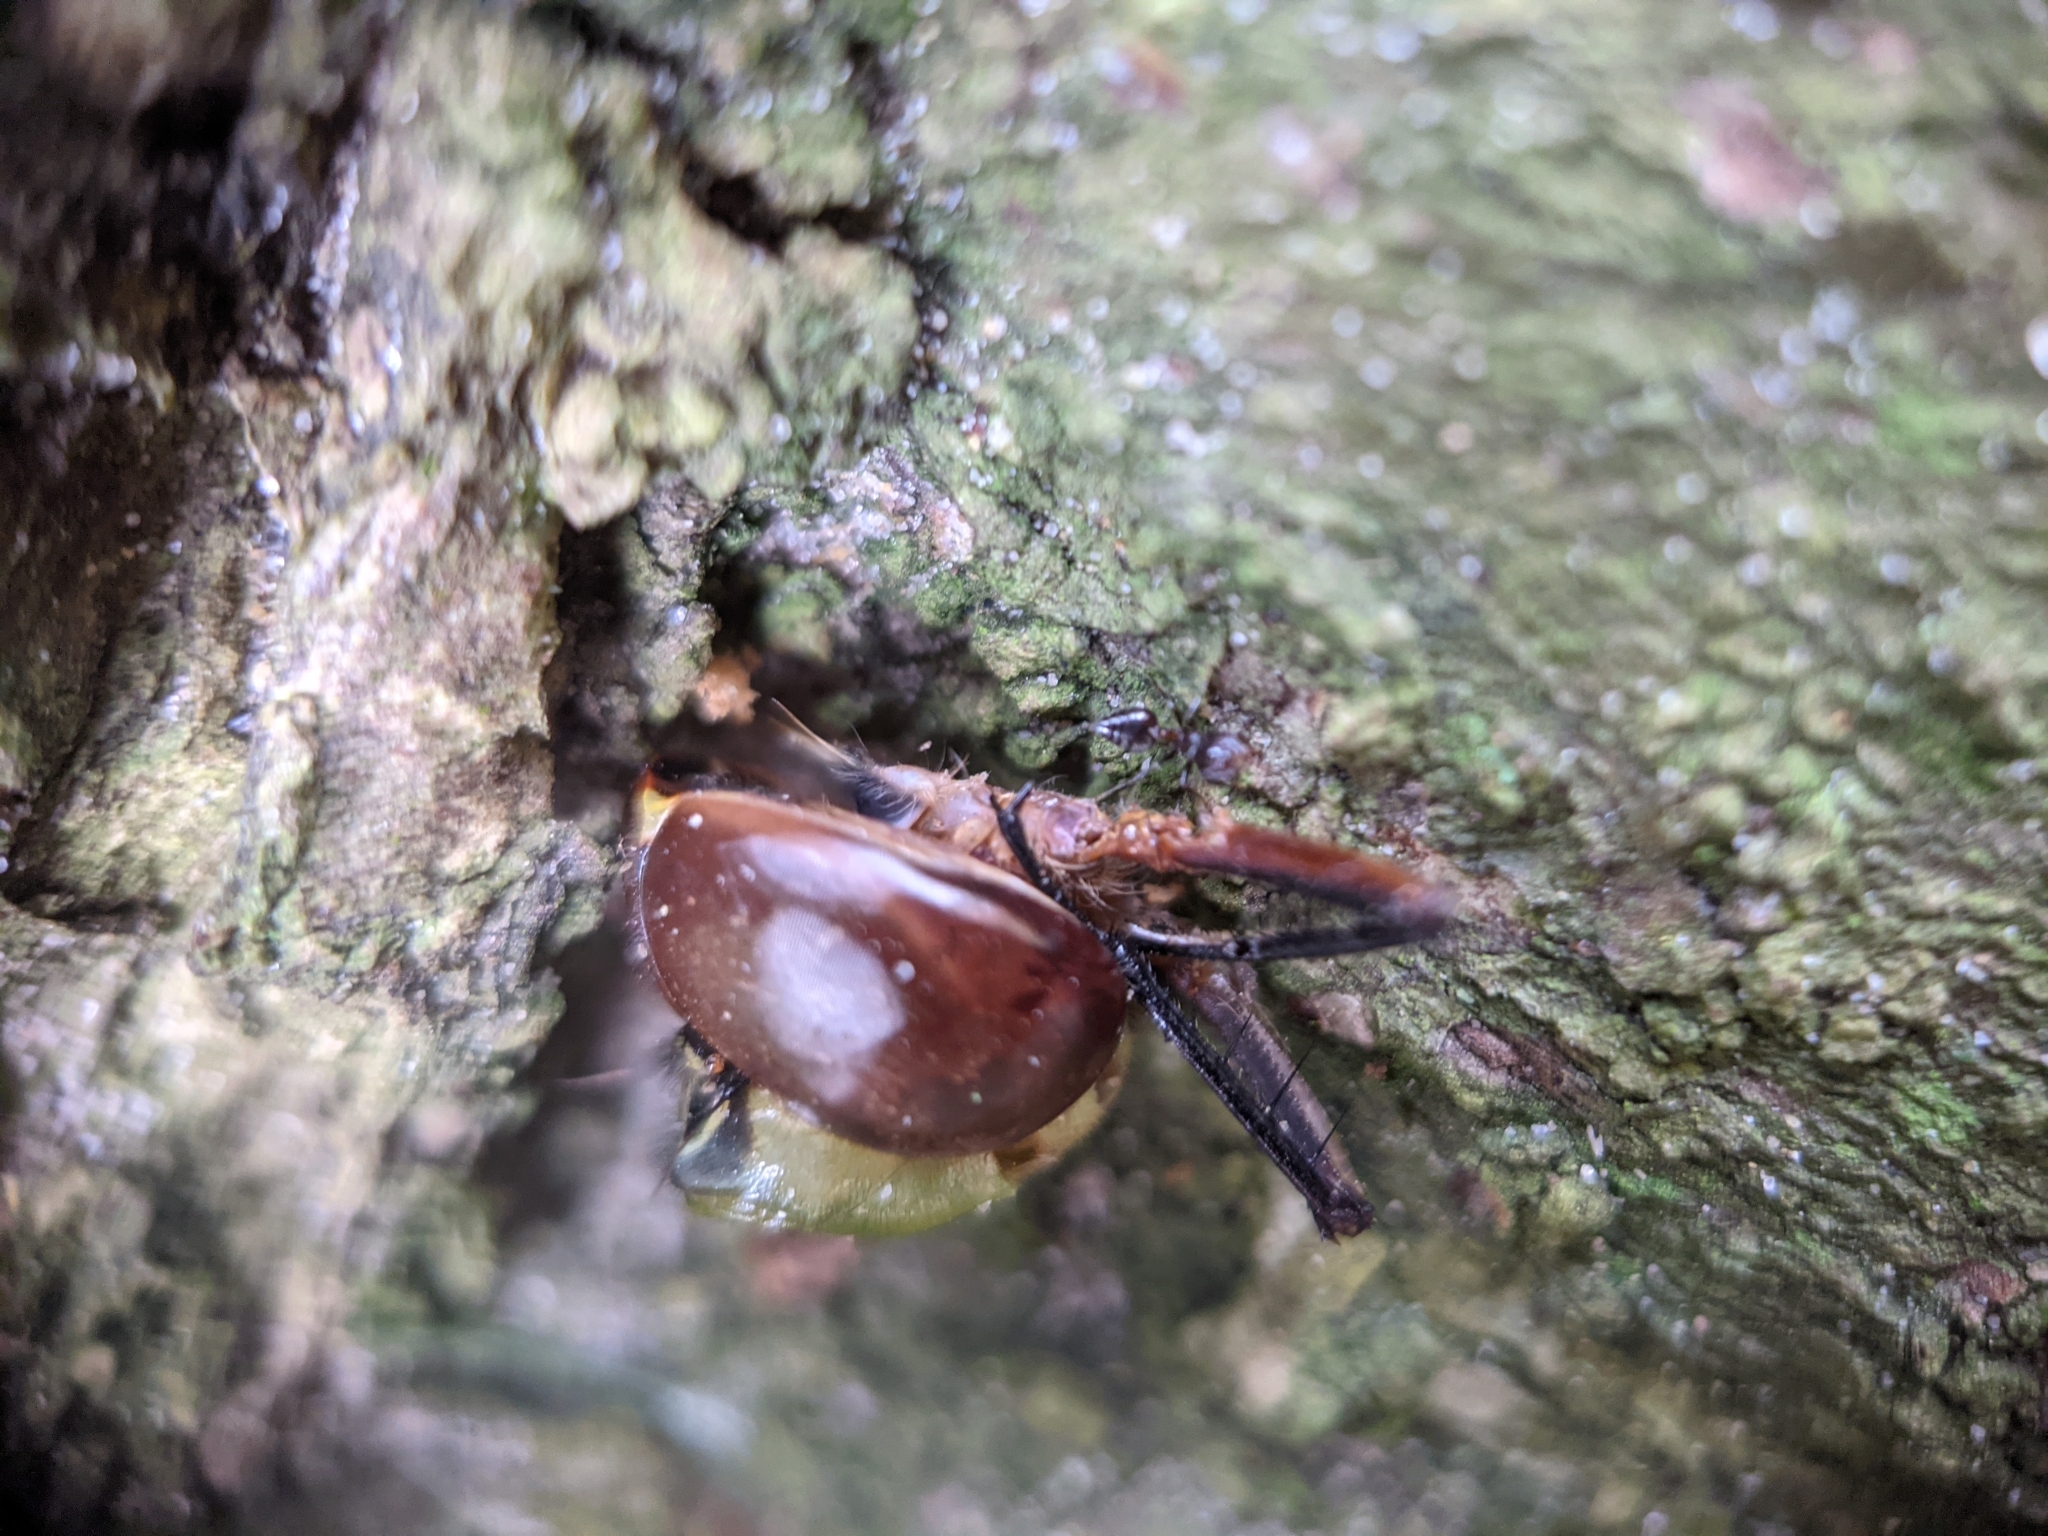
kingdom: Animalia
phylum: Arthropoda
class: Insecta
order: Odonata
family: Aeshnidae
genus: Anax
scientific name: Anax junius
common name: Common green darner
